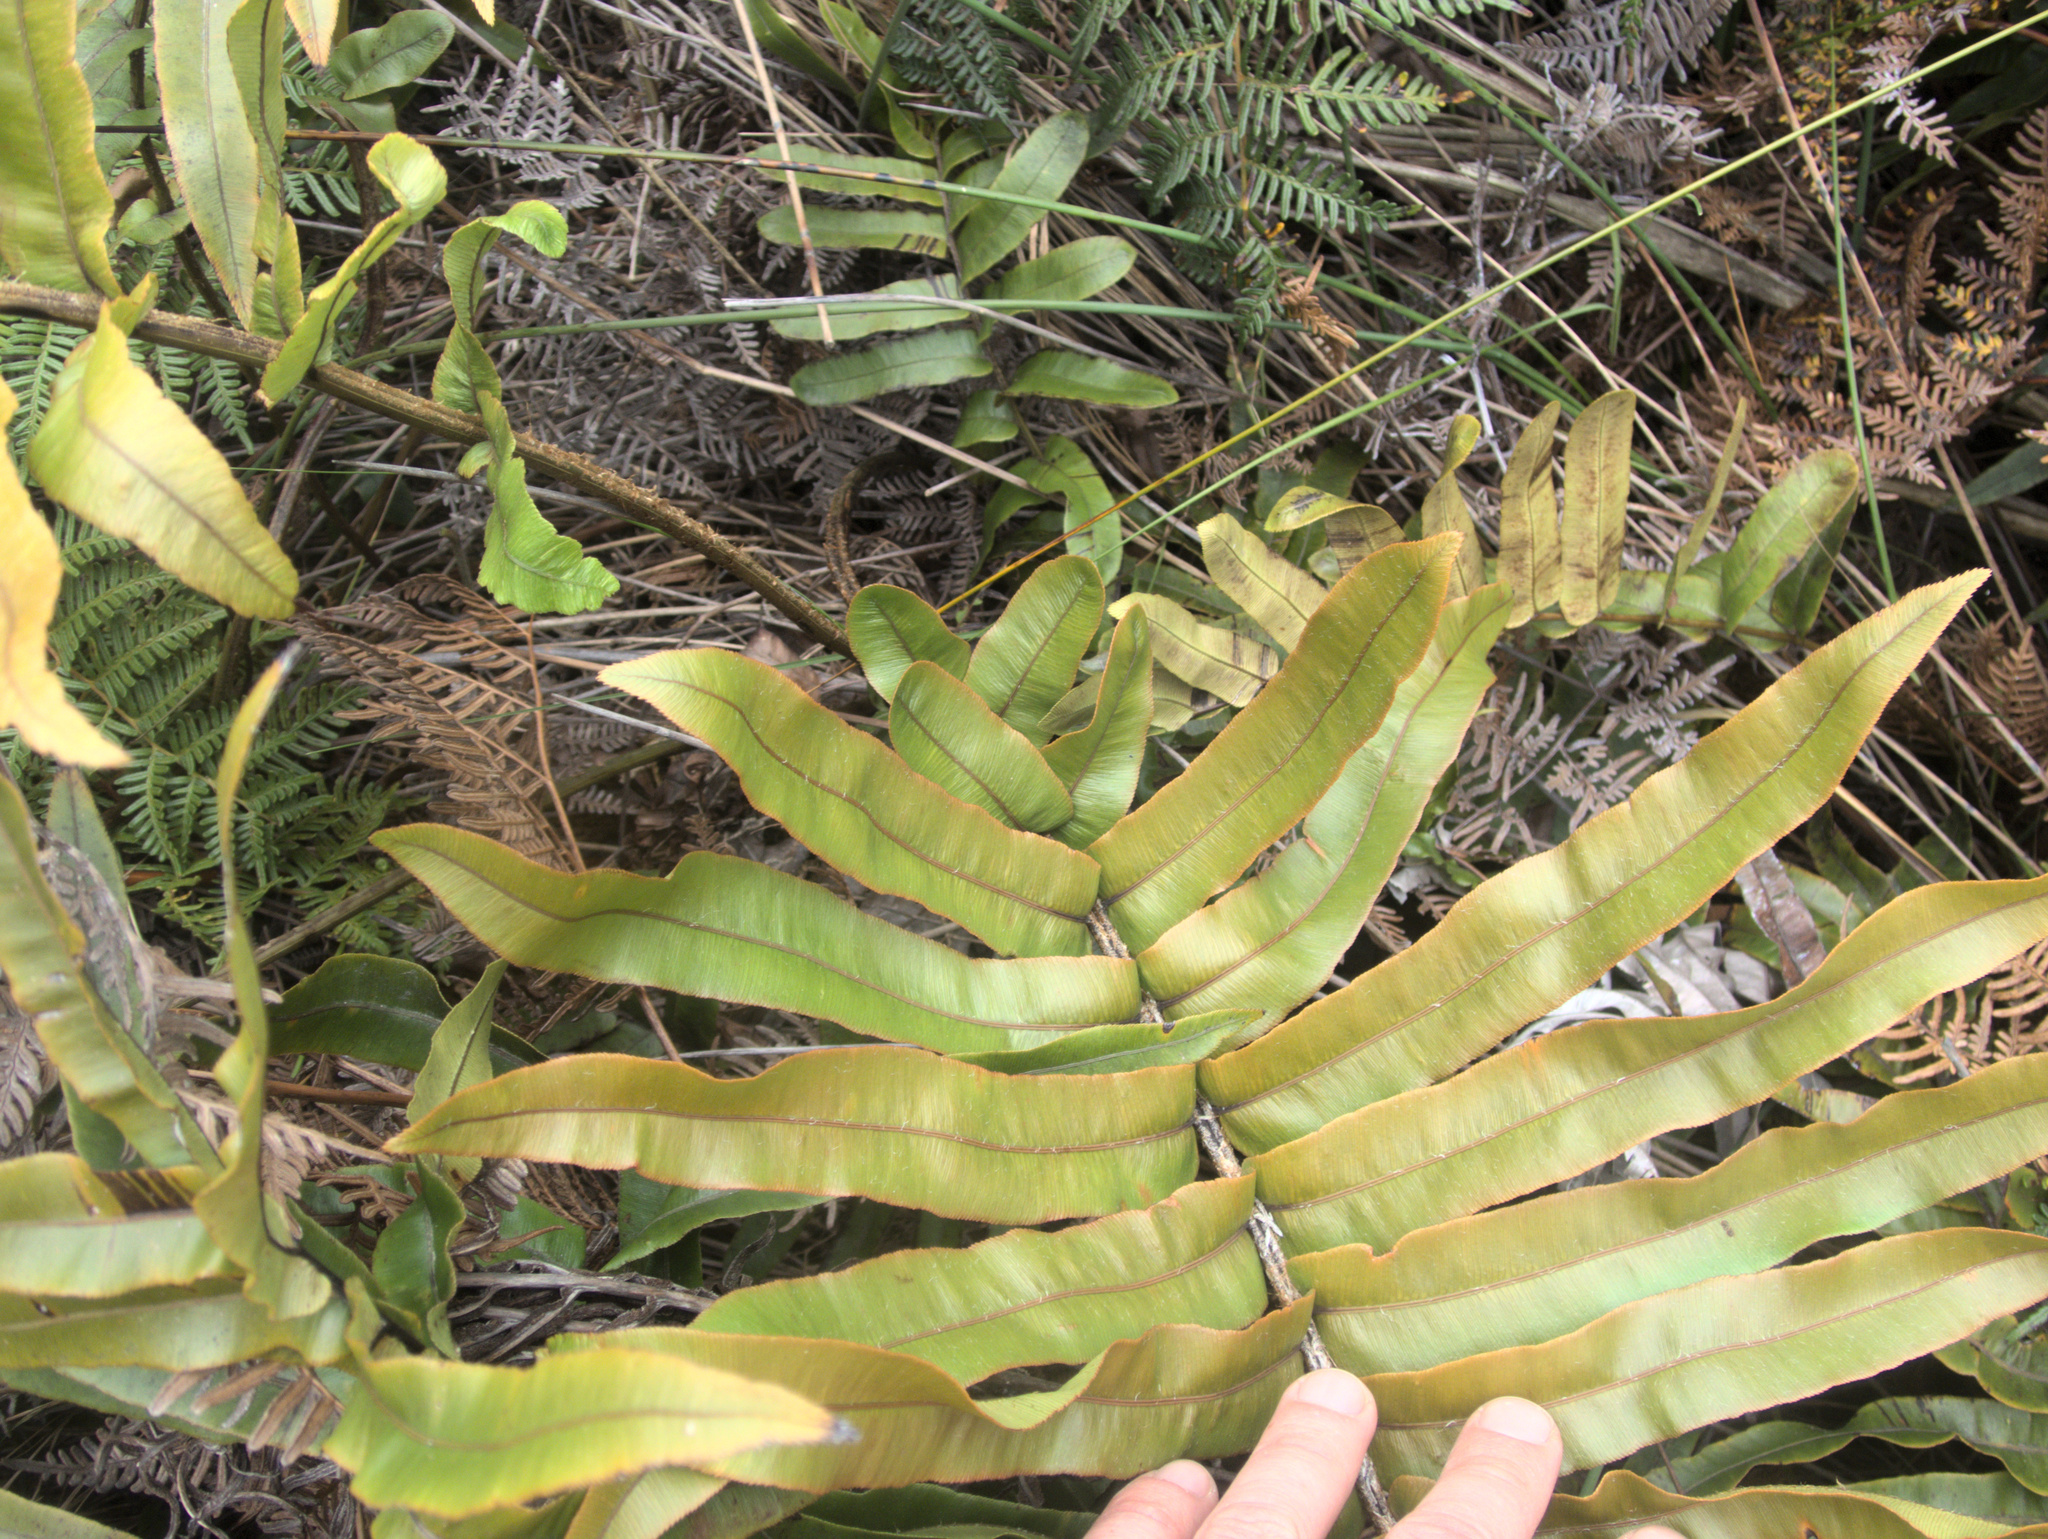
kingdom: Plantae
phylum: Tracheophyta
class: Polypodiopsida
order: Polypodiales
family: Blechnaceae
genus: Parablechnum
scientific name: Parablechnum novae-zelandiae
